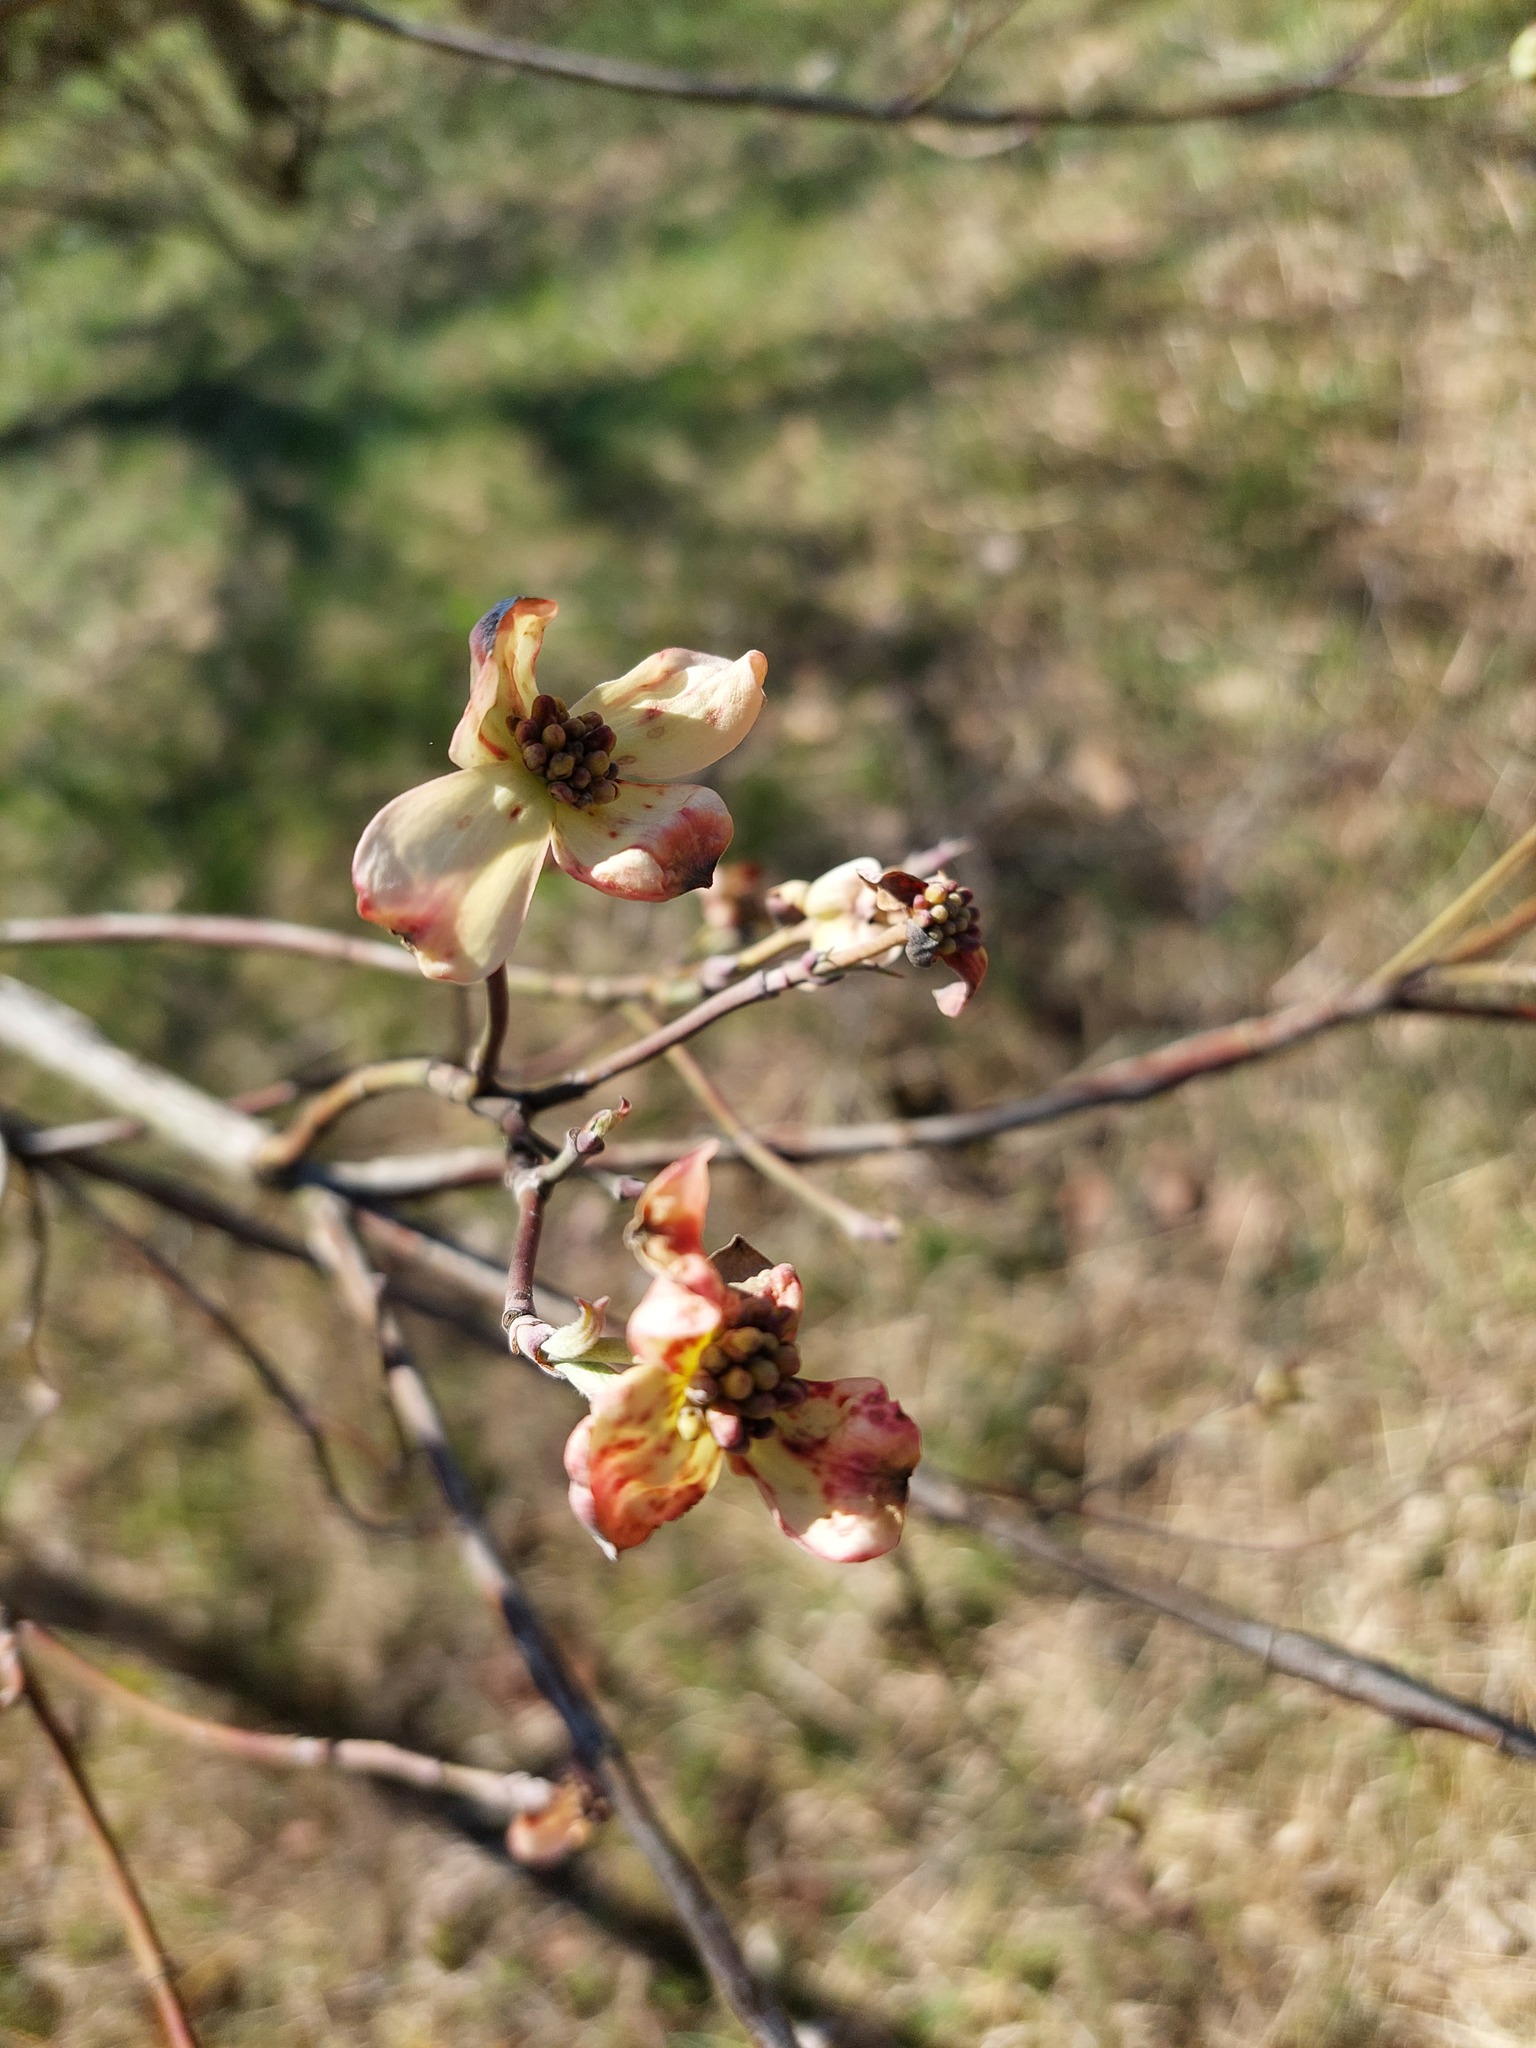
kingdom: Plantae
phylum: Tracheophyta
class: Magnoliopsida
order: Cornales
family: Cornaceae
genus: Cornus
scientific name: Cornus florida
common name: Flowering dogwood
